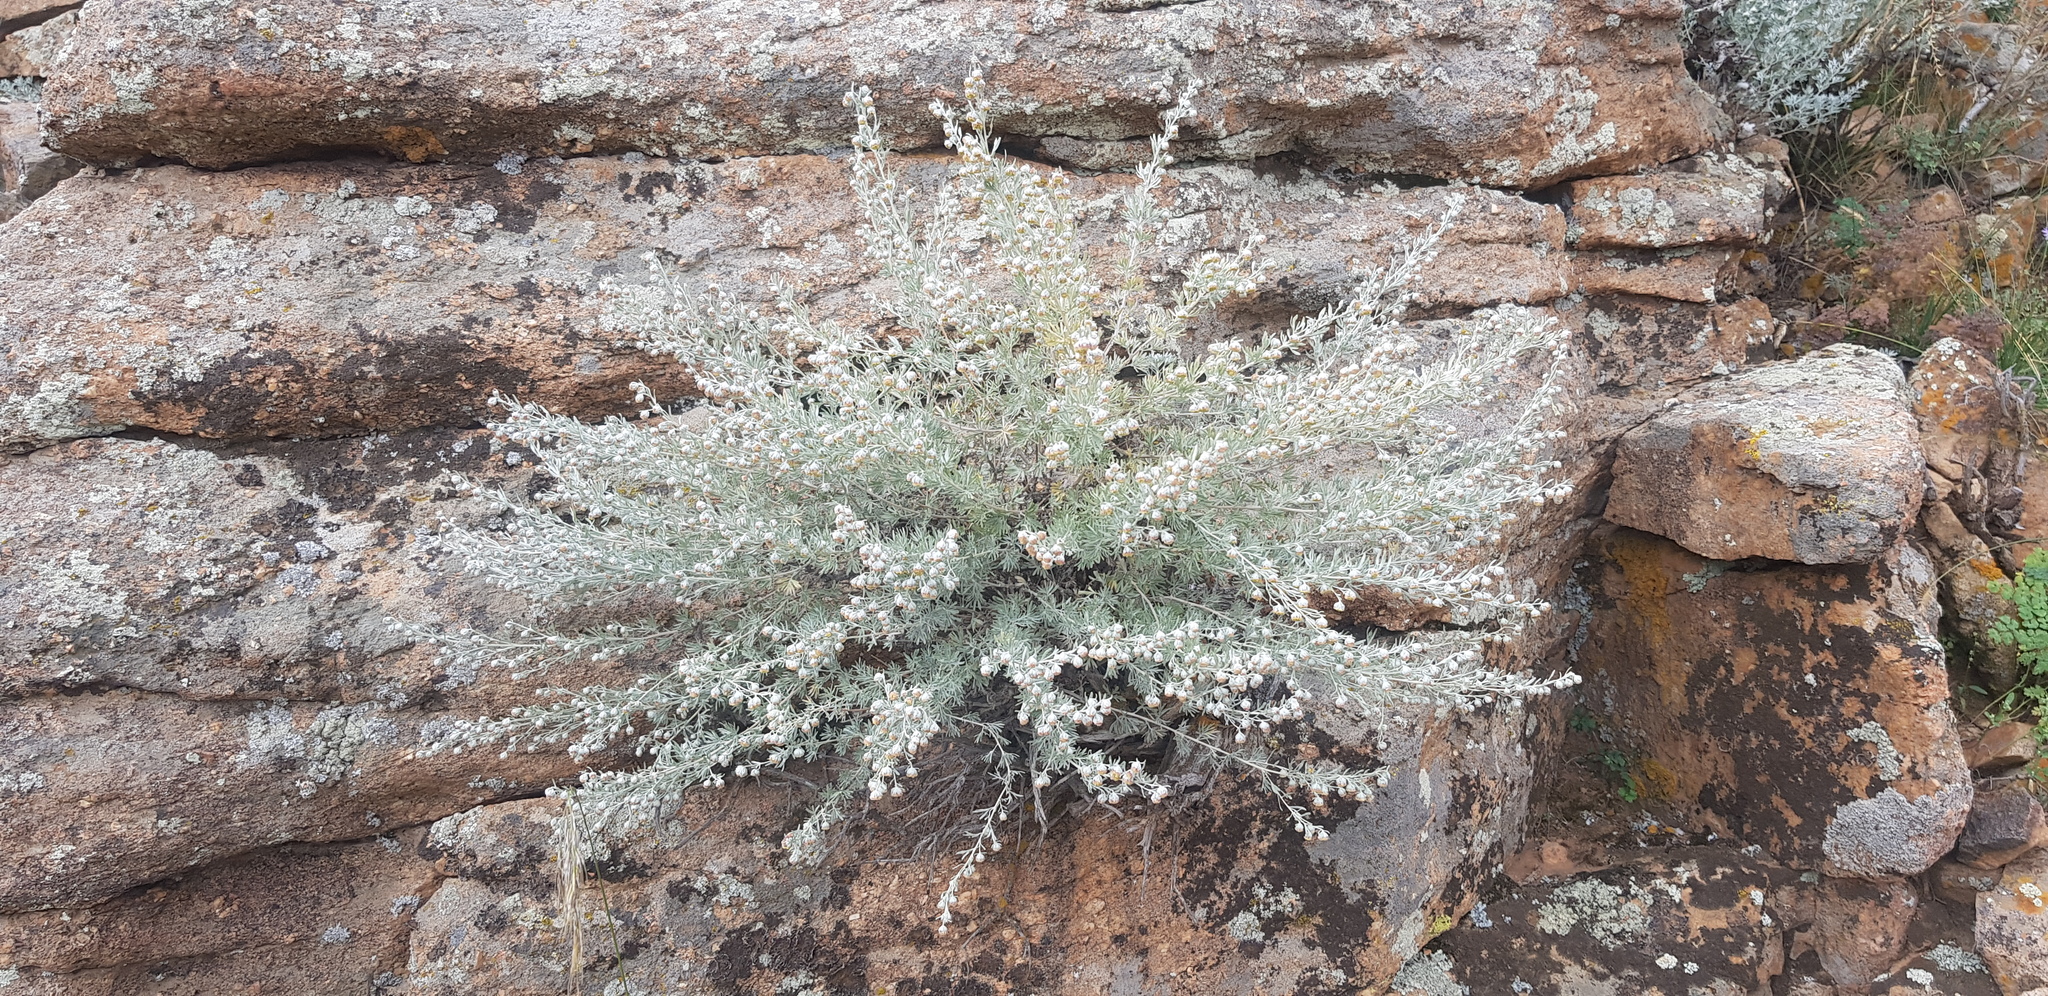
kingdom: Plantae
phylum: Tracheophyta
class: Magnoliopsida
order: Asterales
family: Asteraceae
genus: Artemisia
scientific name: Artemisia rutifolia
